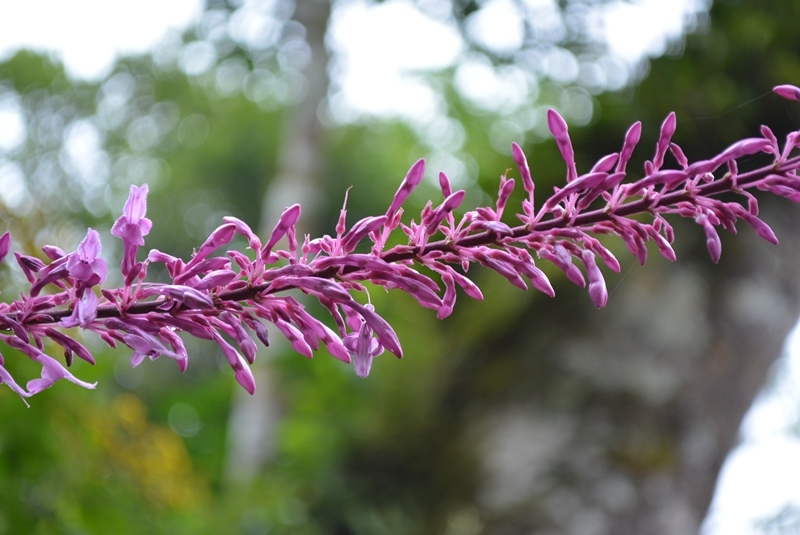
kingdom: Plantae
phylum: Tracheophyta
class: Magnoliopsida
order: Lamiales
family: Acanthaceae
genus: Odontonema
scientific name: Odontonema callistachyum
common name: Firespike
